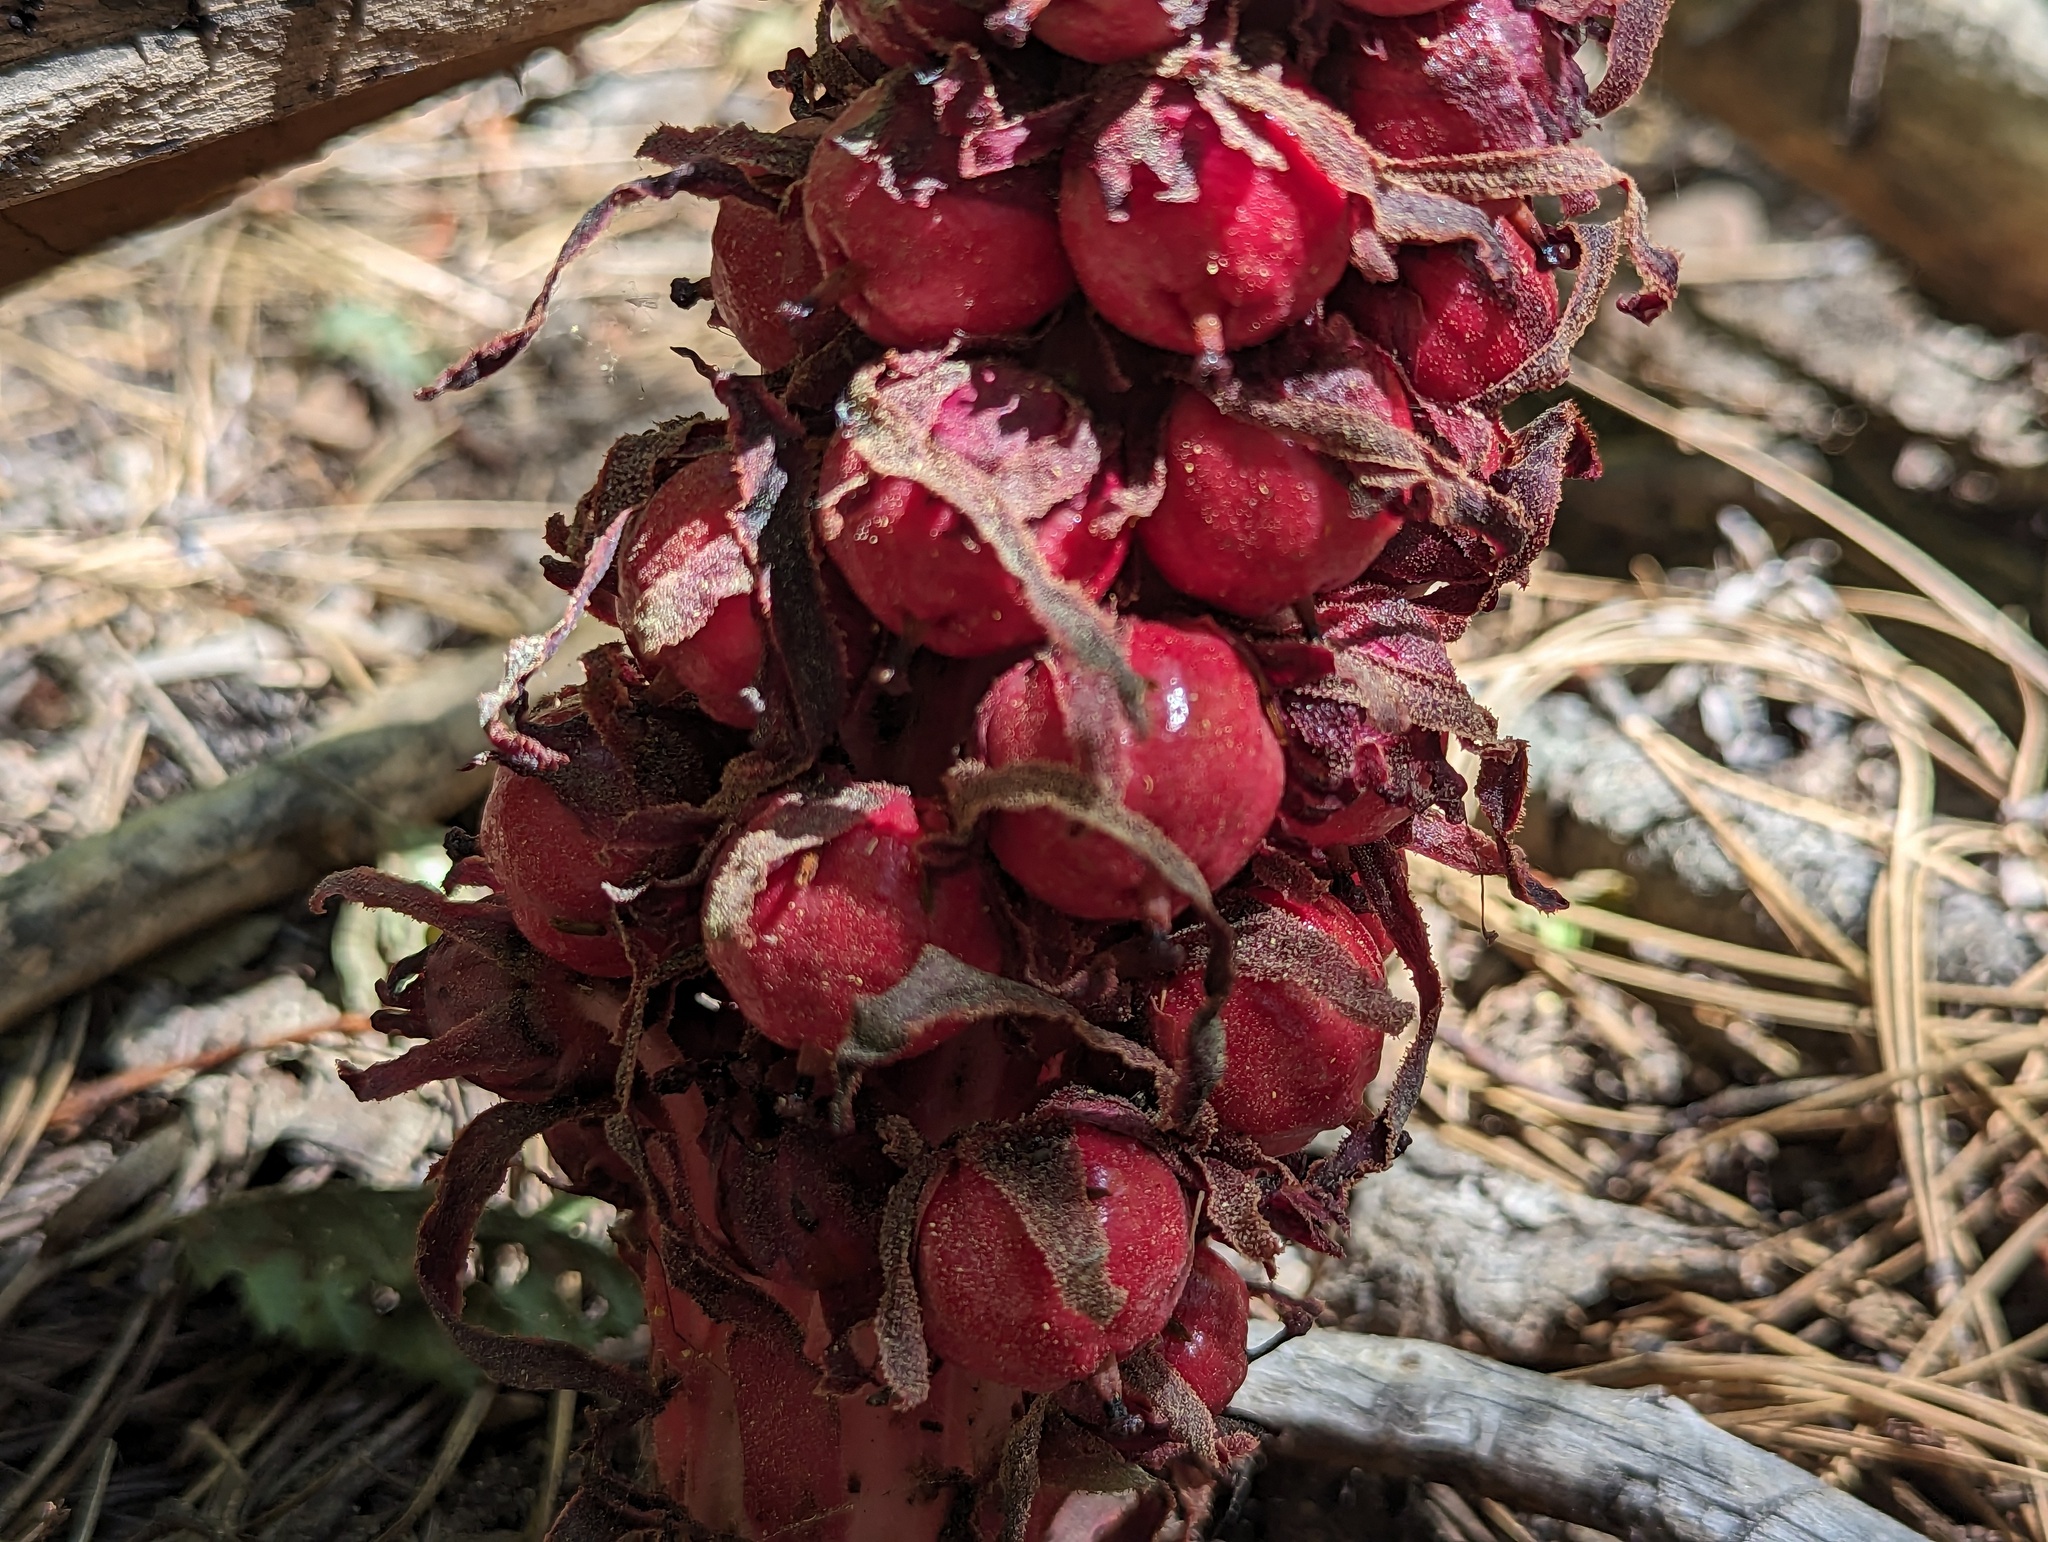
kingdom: Plantae
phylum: Tracheophyta
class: Magnoliopsida
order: Ericales
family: Ericaceae
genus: Sarcodes
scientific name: Sarcodes sanguinea
